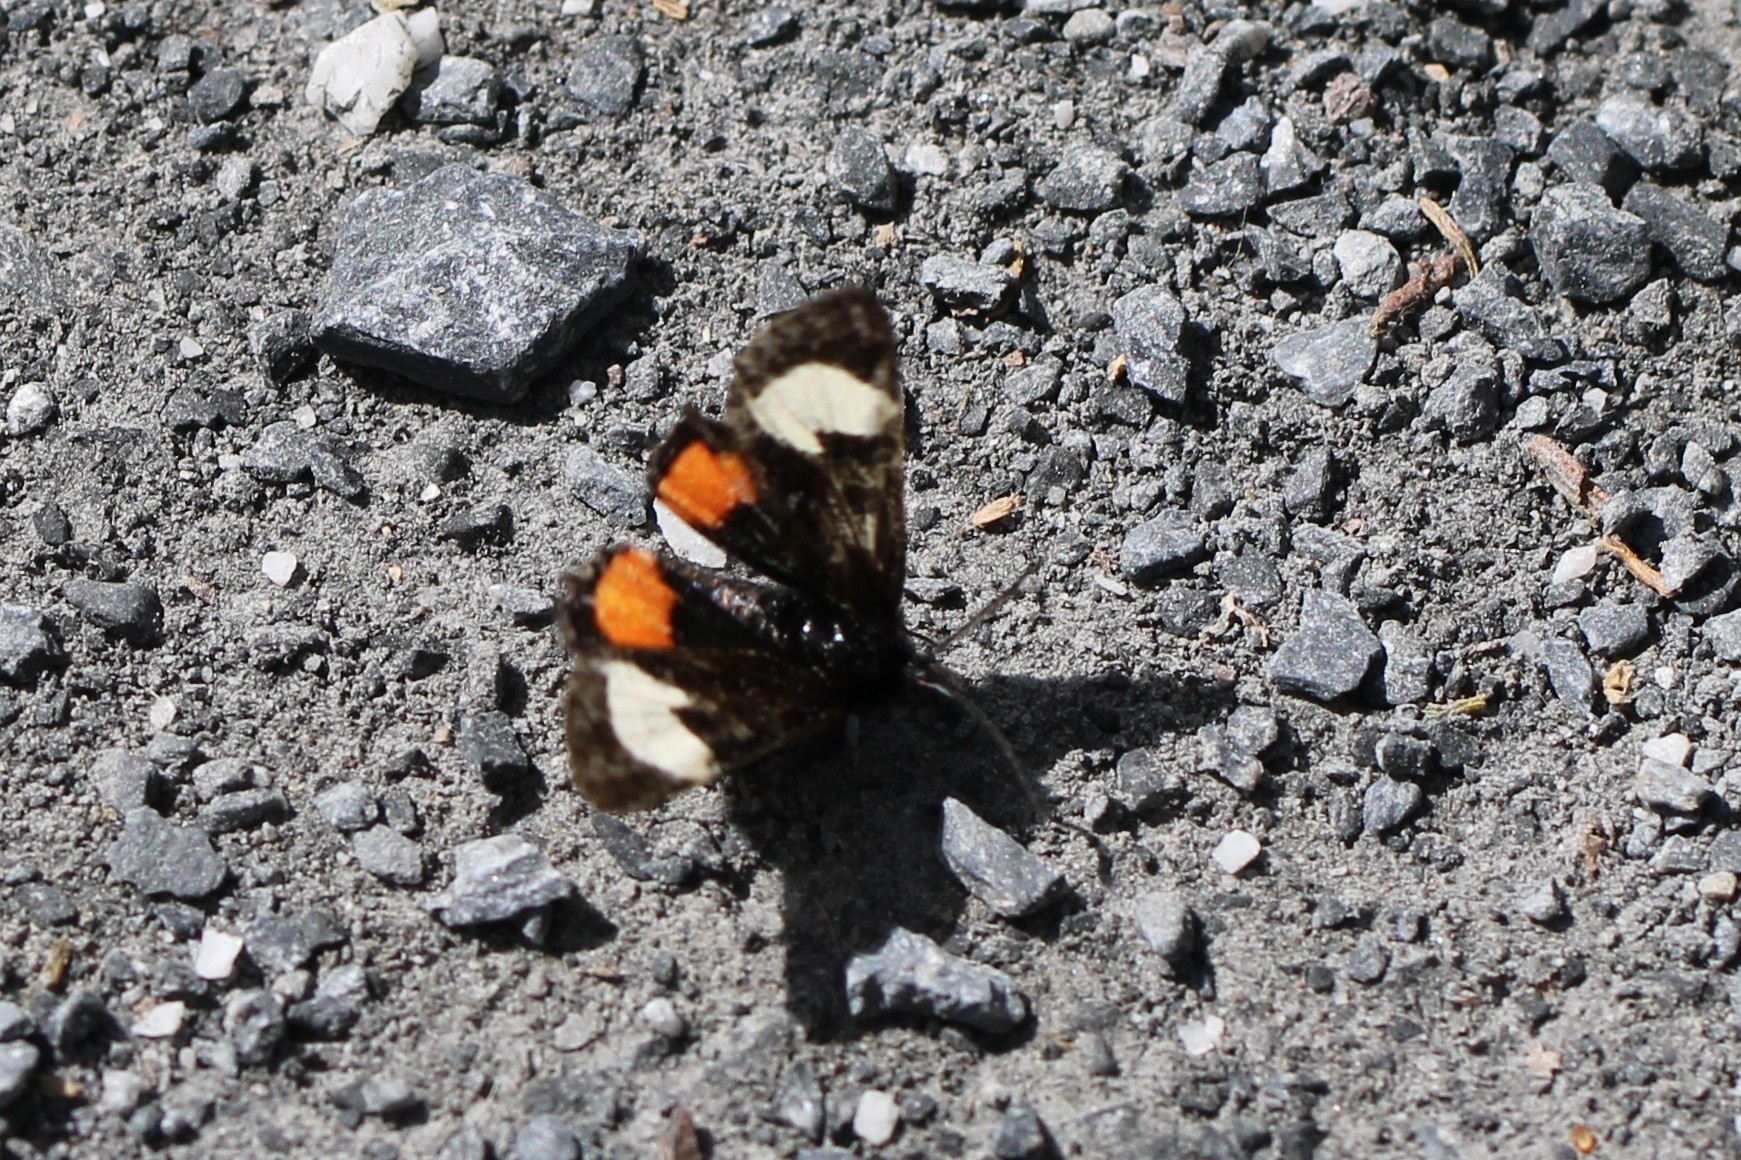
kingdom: Animalia
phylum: Arthropoda
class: Insecta
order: Lepidoptera
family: Noctuidae
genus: Psychomorpha
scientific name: Psychomorpha epimenis
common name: Grapevine epimenis moth
